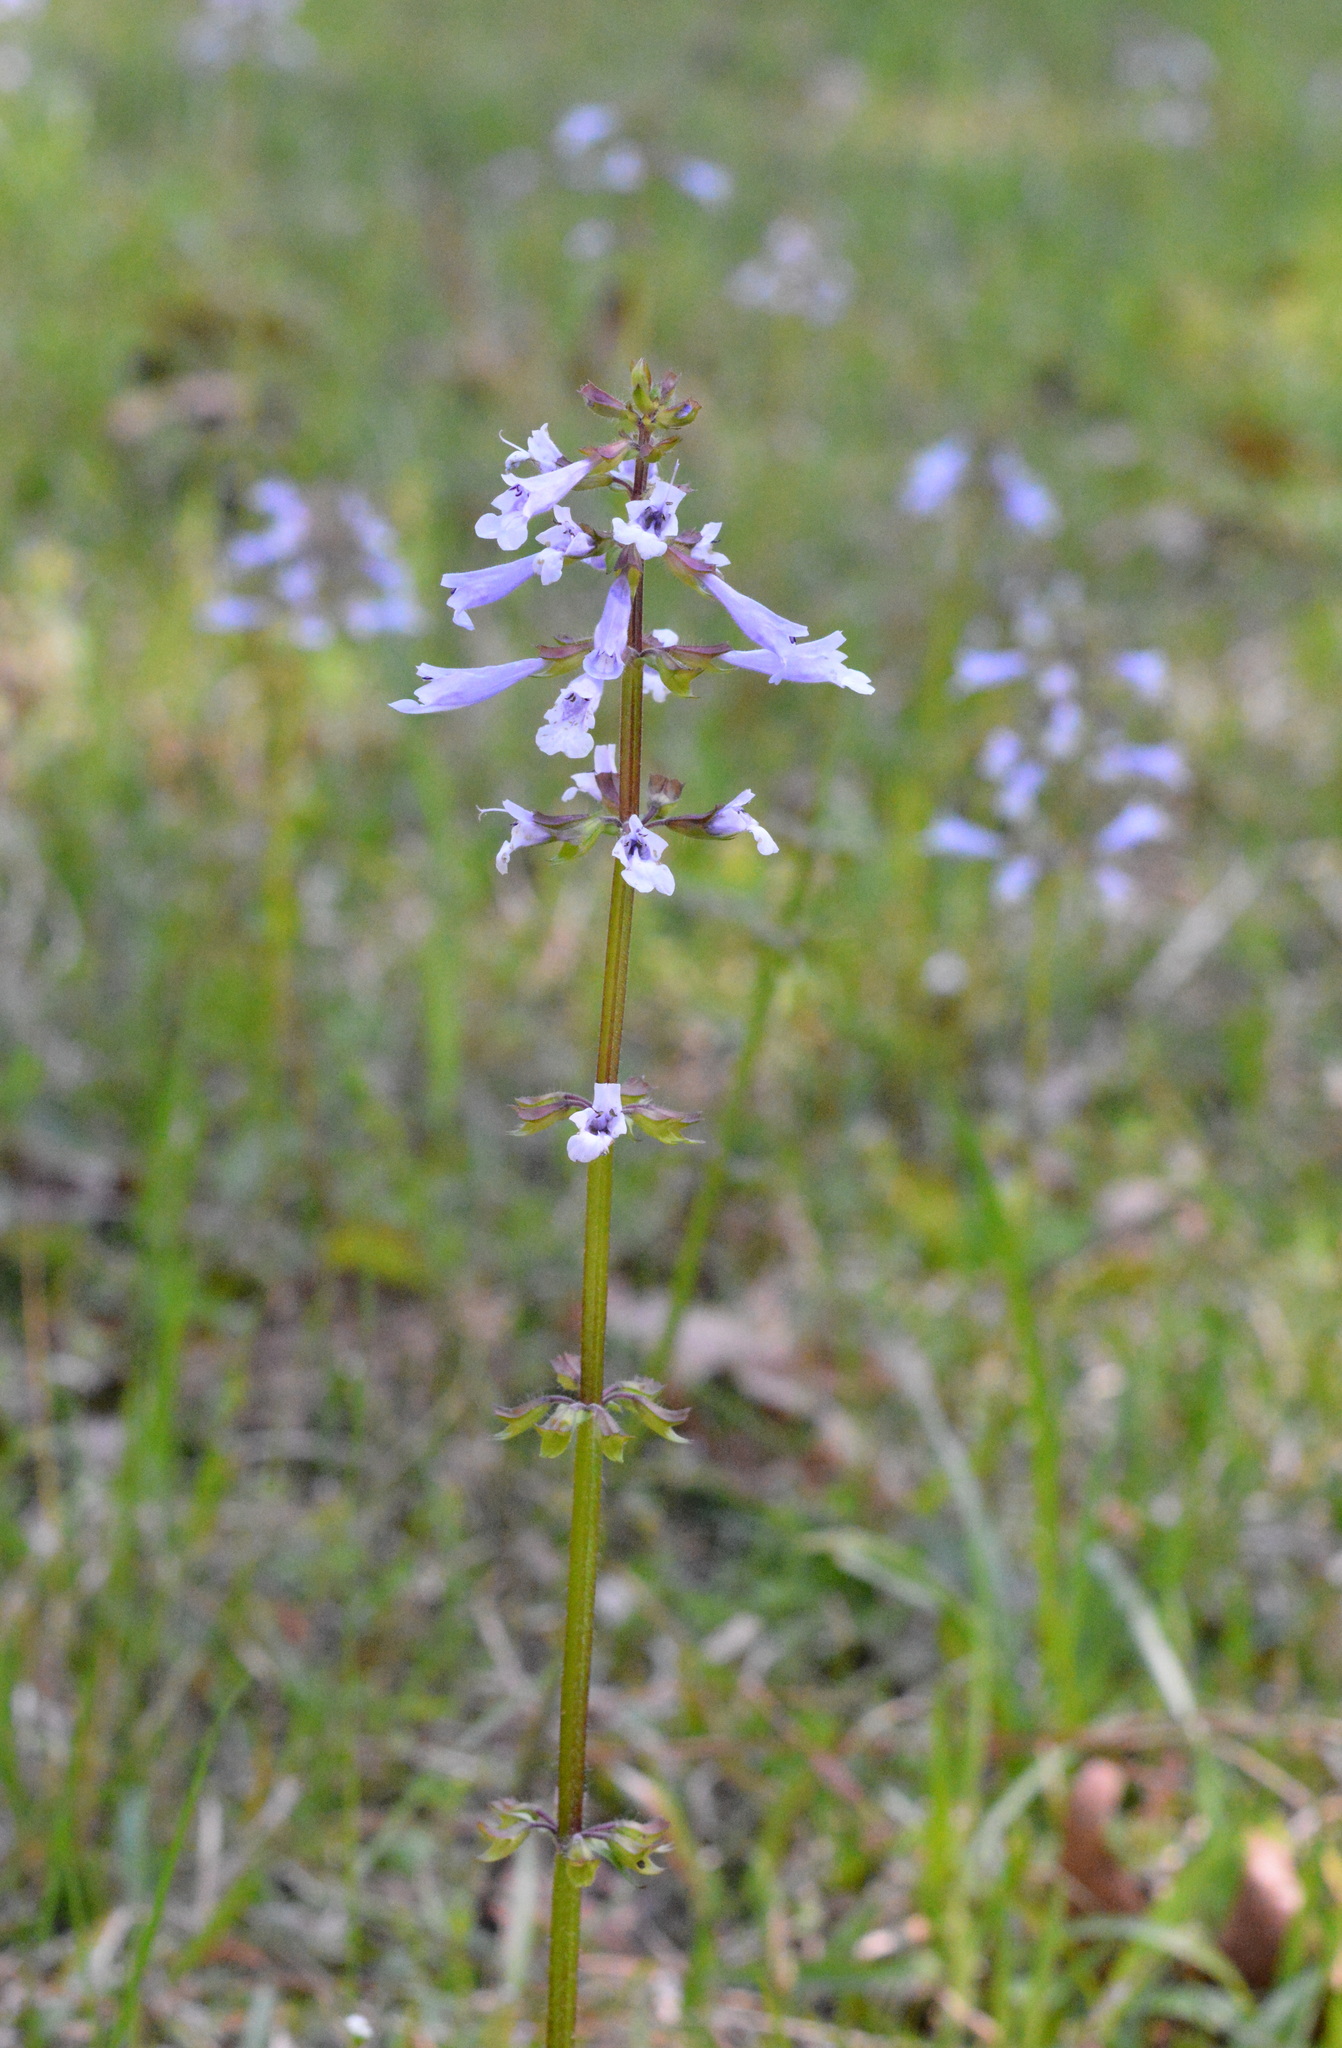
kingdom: Plantae
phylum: Tracheophyta
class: Magnoliopsida
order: Lamiales
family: Lamiaceae
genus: Salvia
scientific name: Salvia lyrata
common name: Cancerweed
